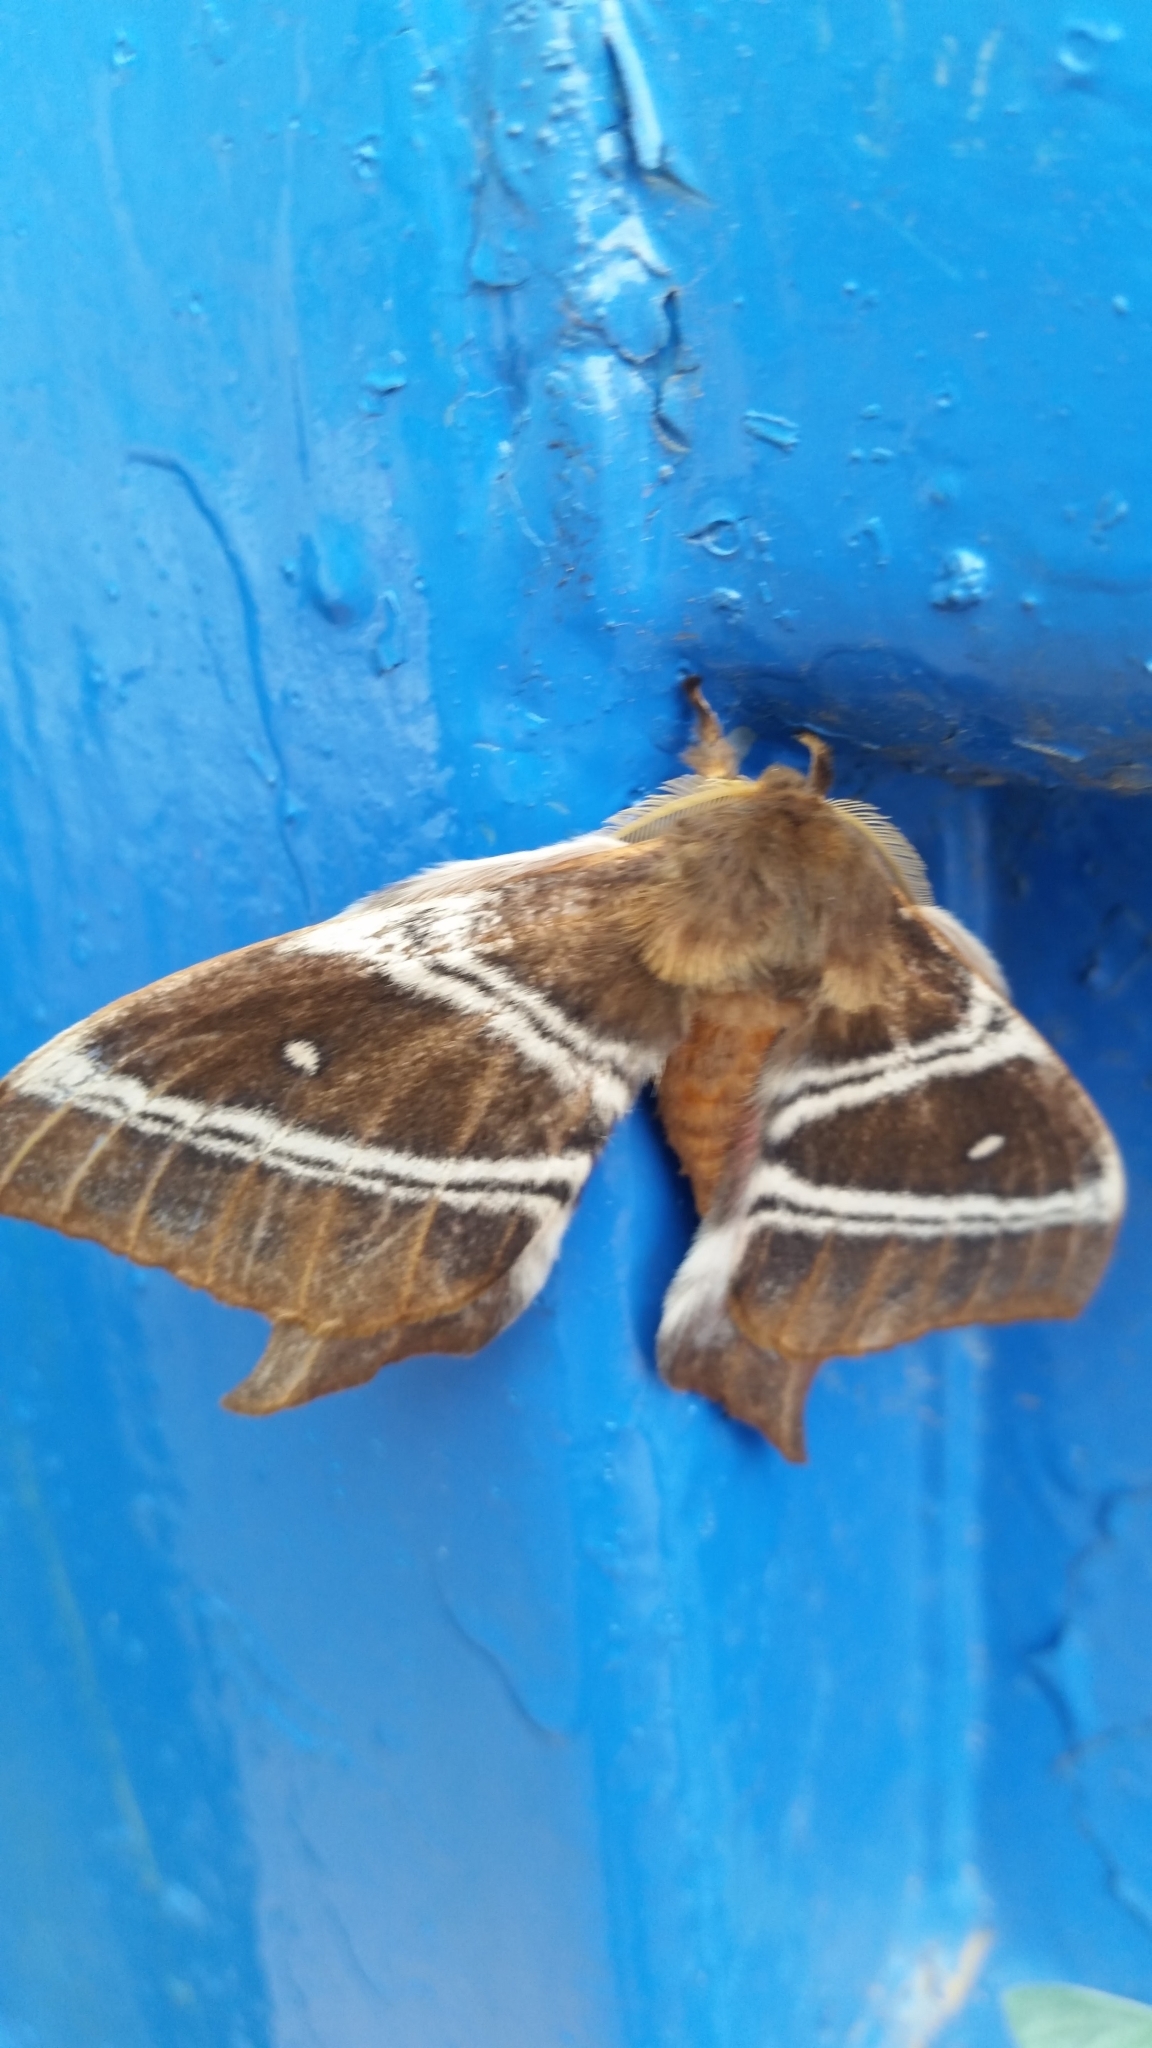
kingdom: Animalia
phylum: Arthropoda
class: Insecta
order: Lepidoptera
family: Saturniidae
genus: Urota
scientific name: Urota sinope
